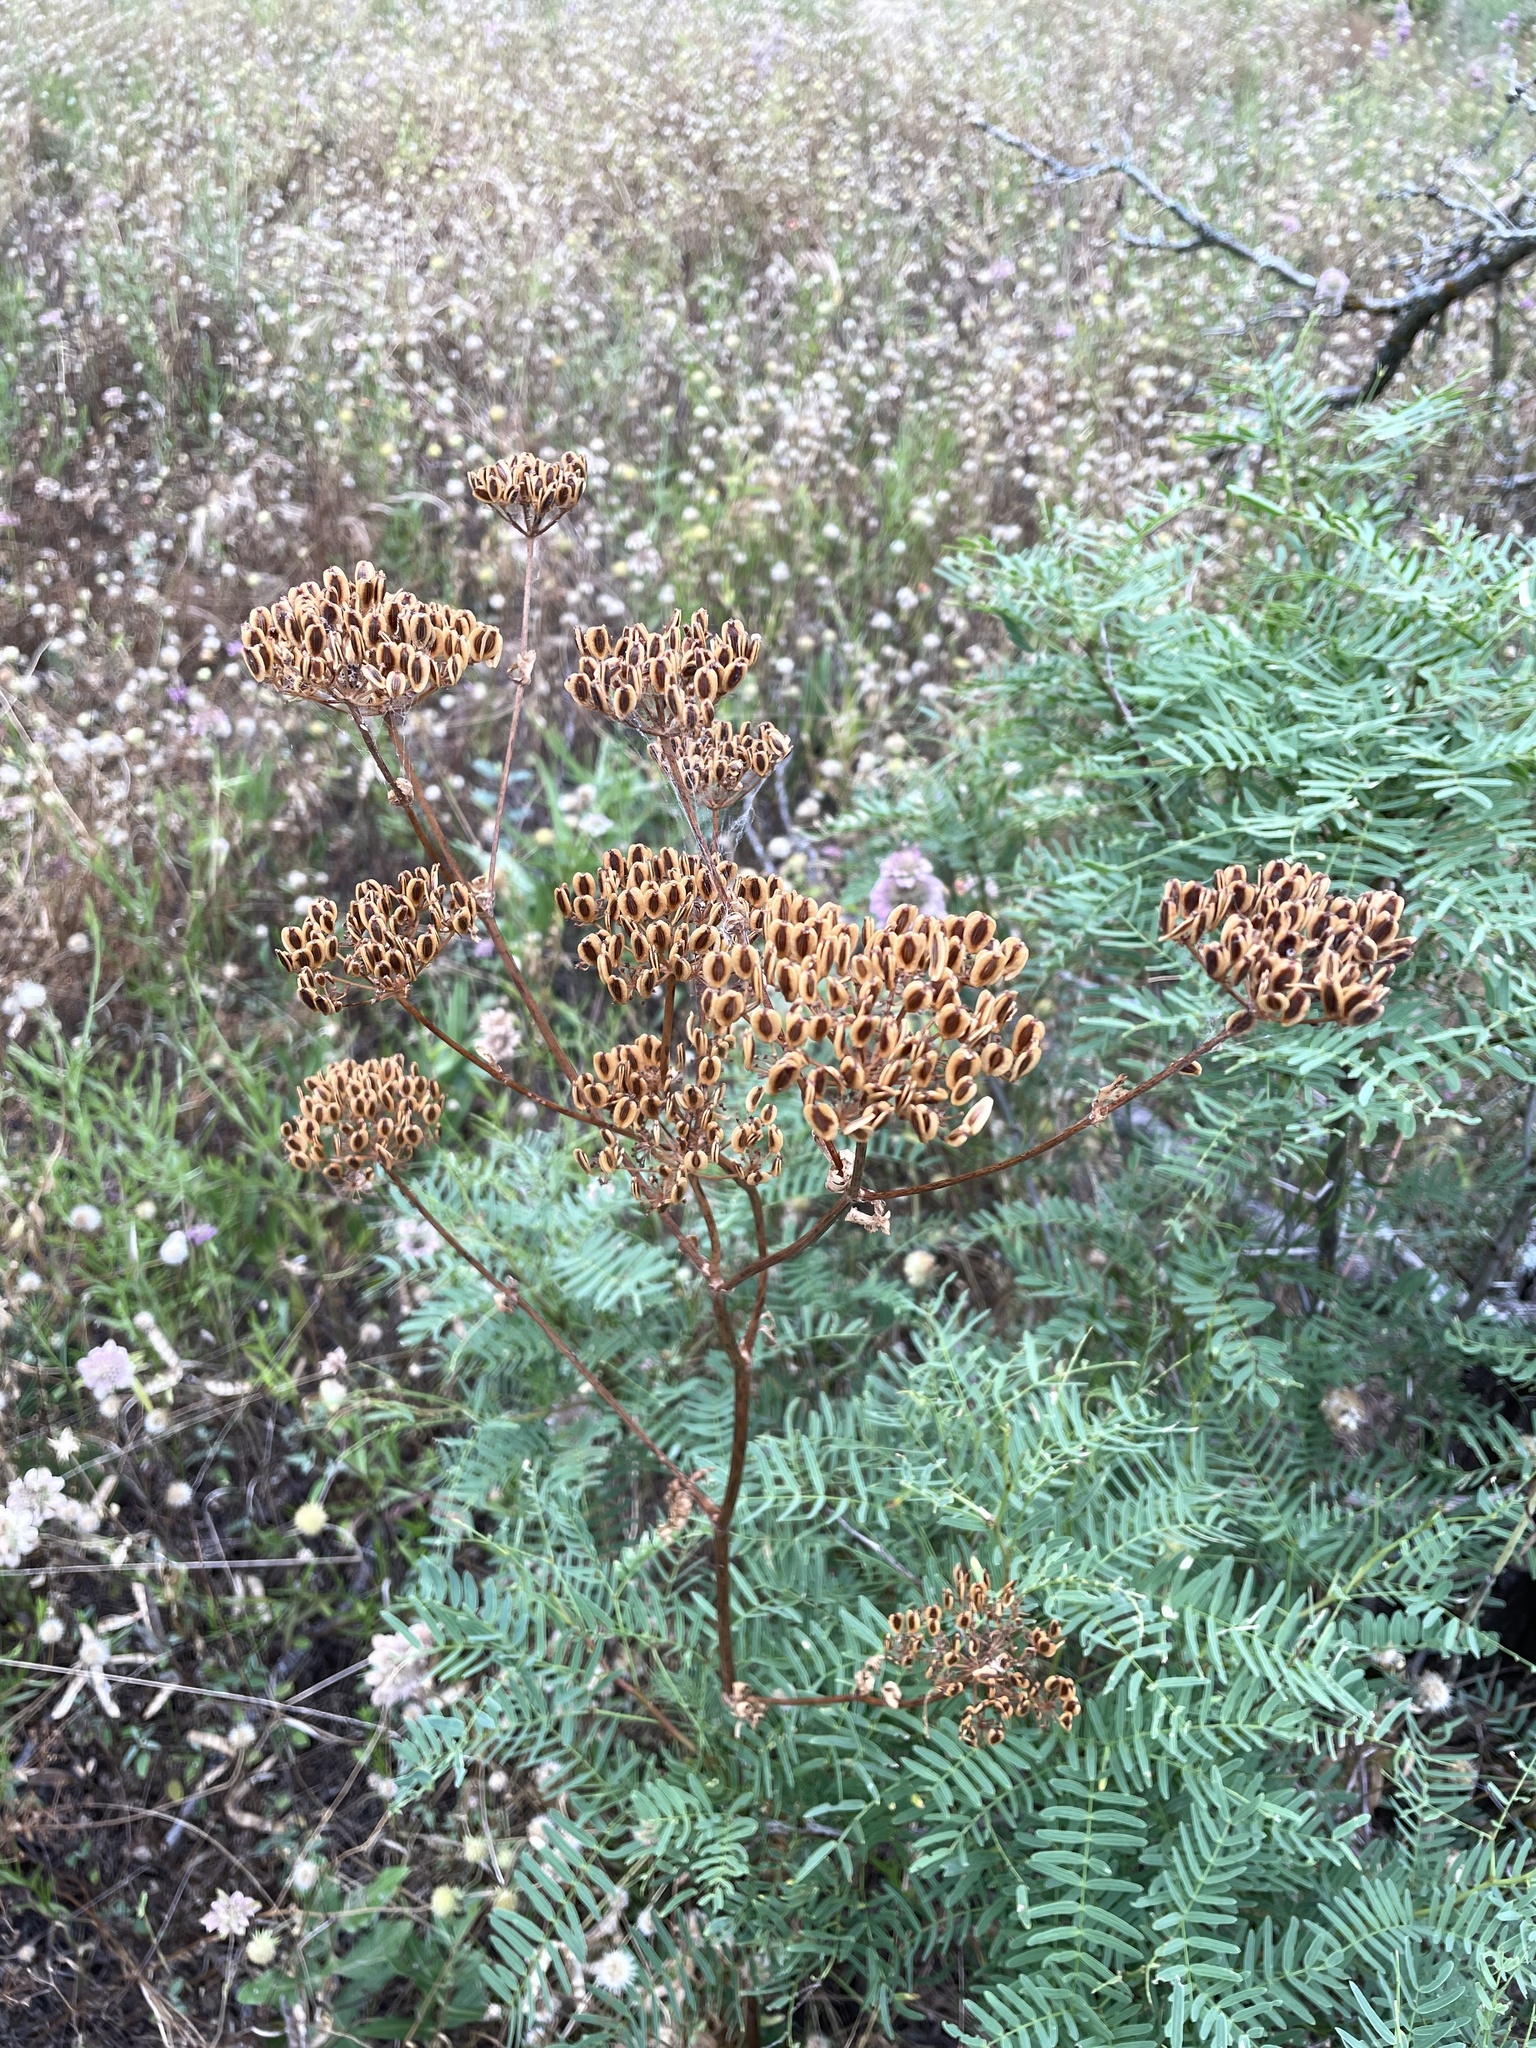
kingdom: Plantae
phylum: Tracheophyta
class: Magnoliopsida
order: Apiales
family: Apiaceae
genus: Polytaenia
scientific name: Polytaenia texana
